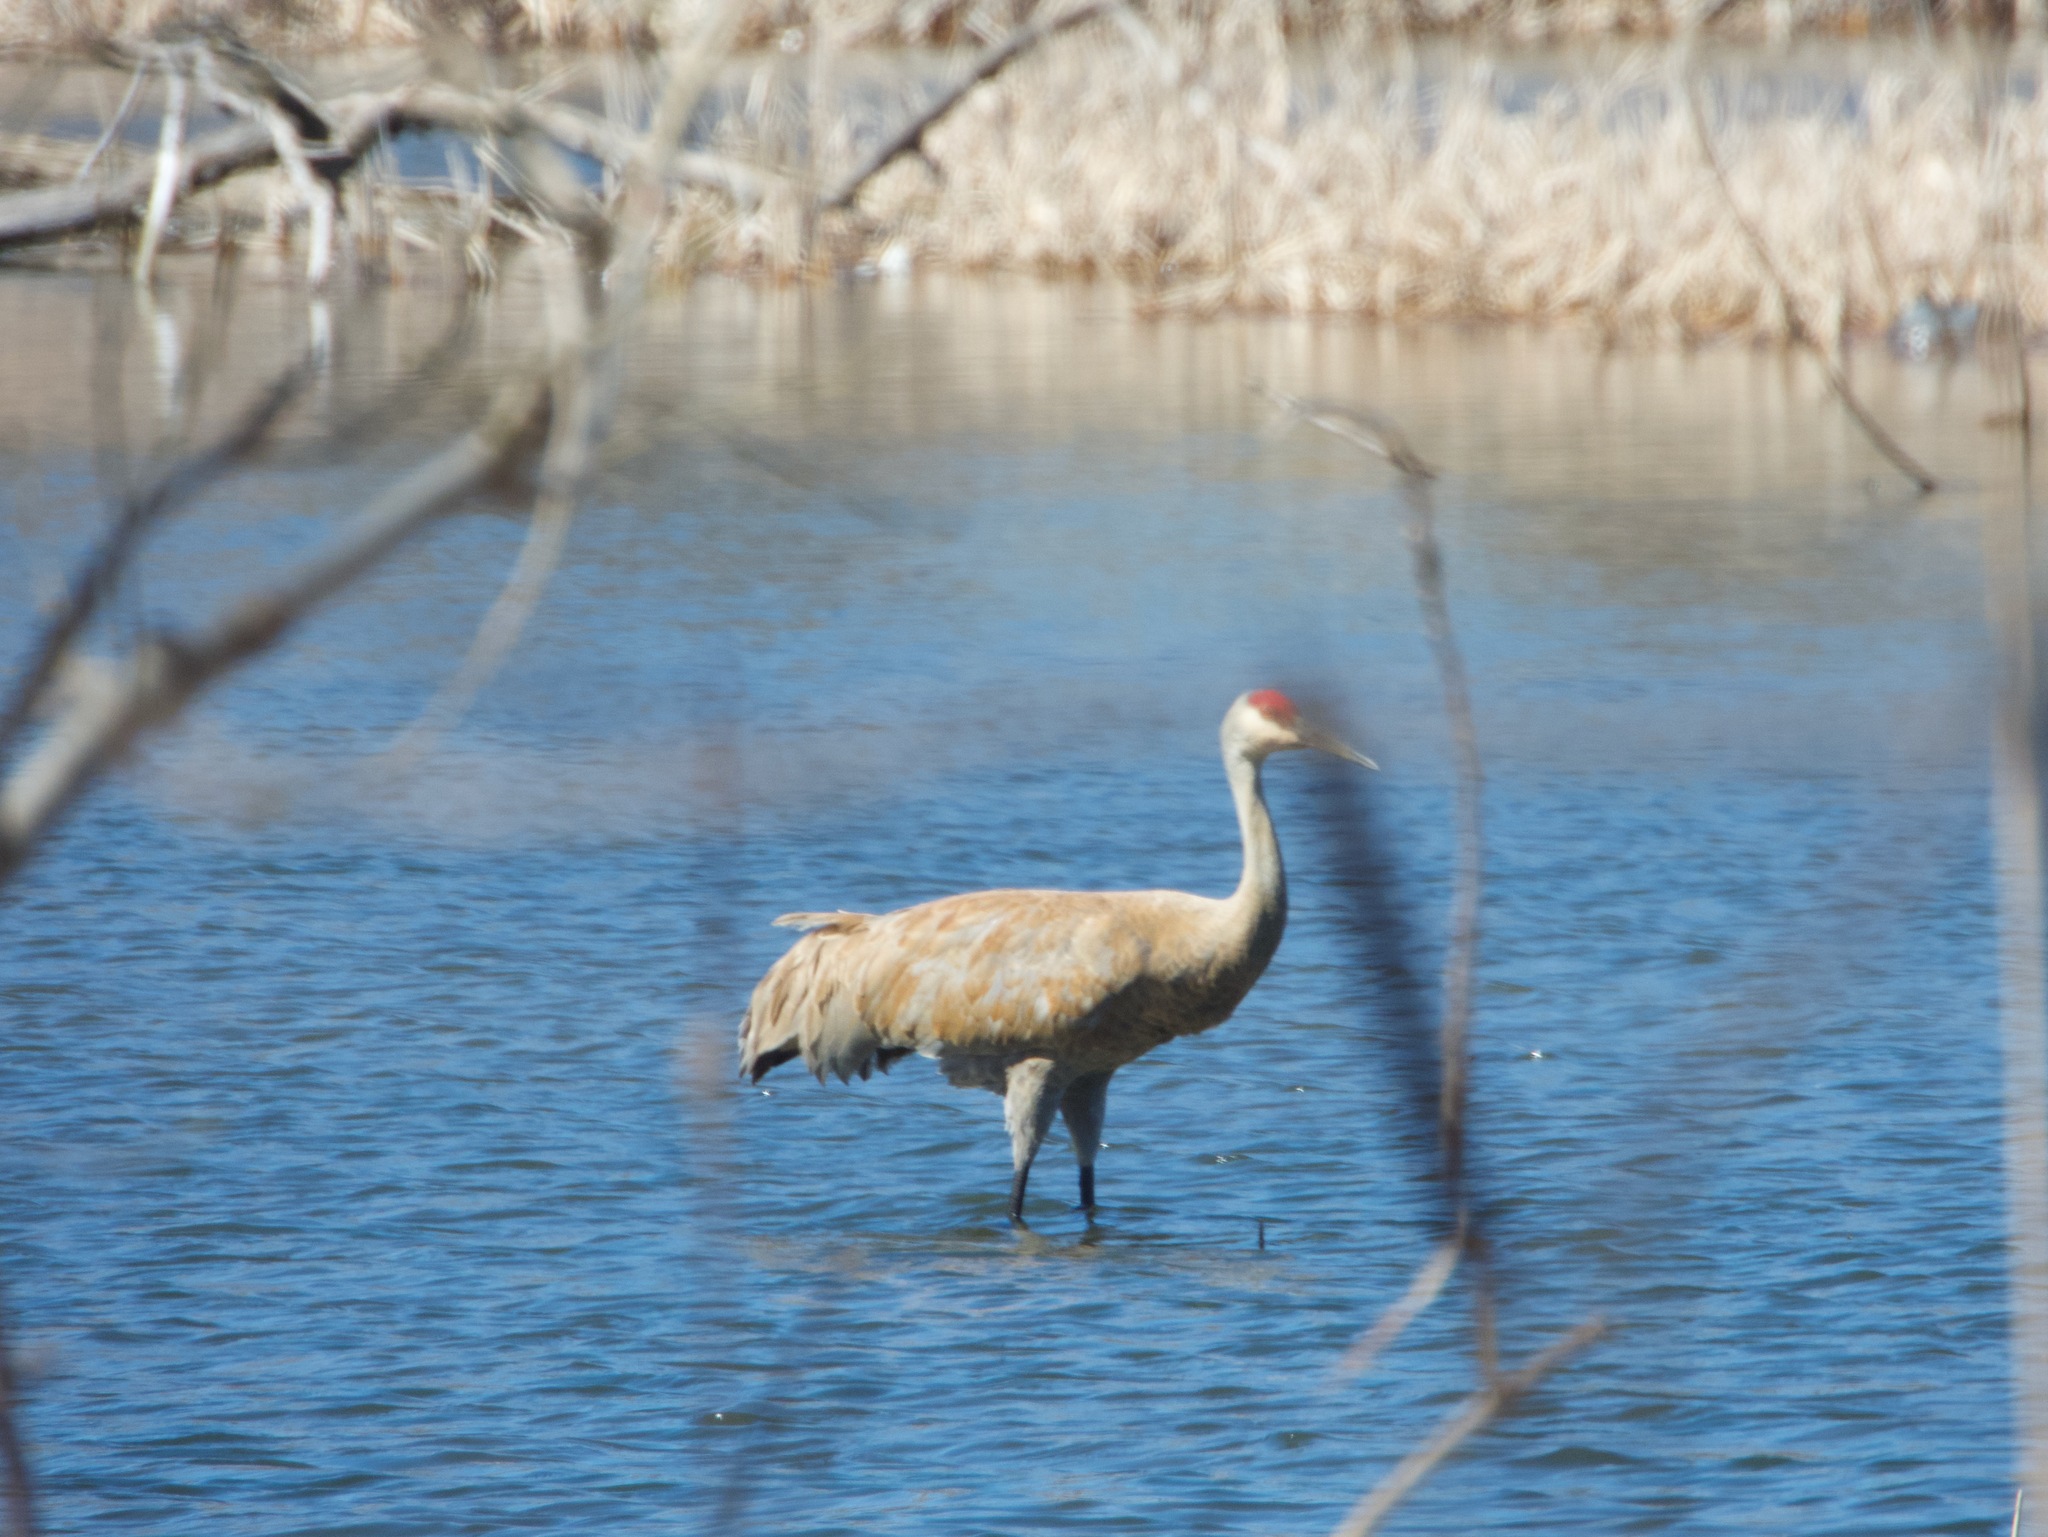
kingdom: Animalia
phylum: Chordata
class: Aves
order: Gruiformes
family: Gruidae
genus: Grus
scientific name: Grus canadensis
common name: Sandhill crane
